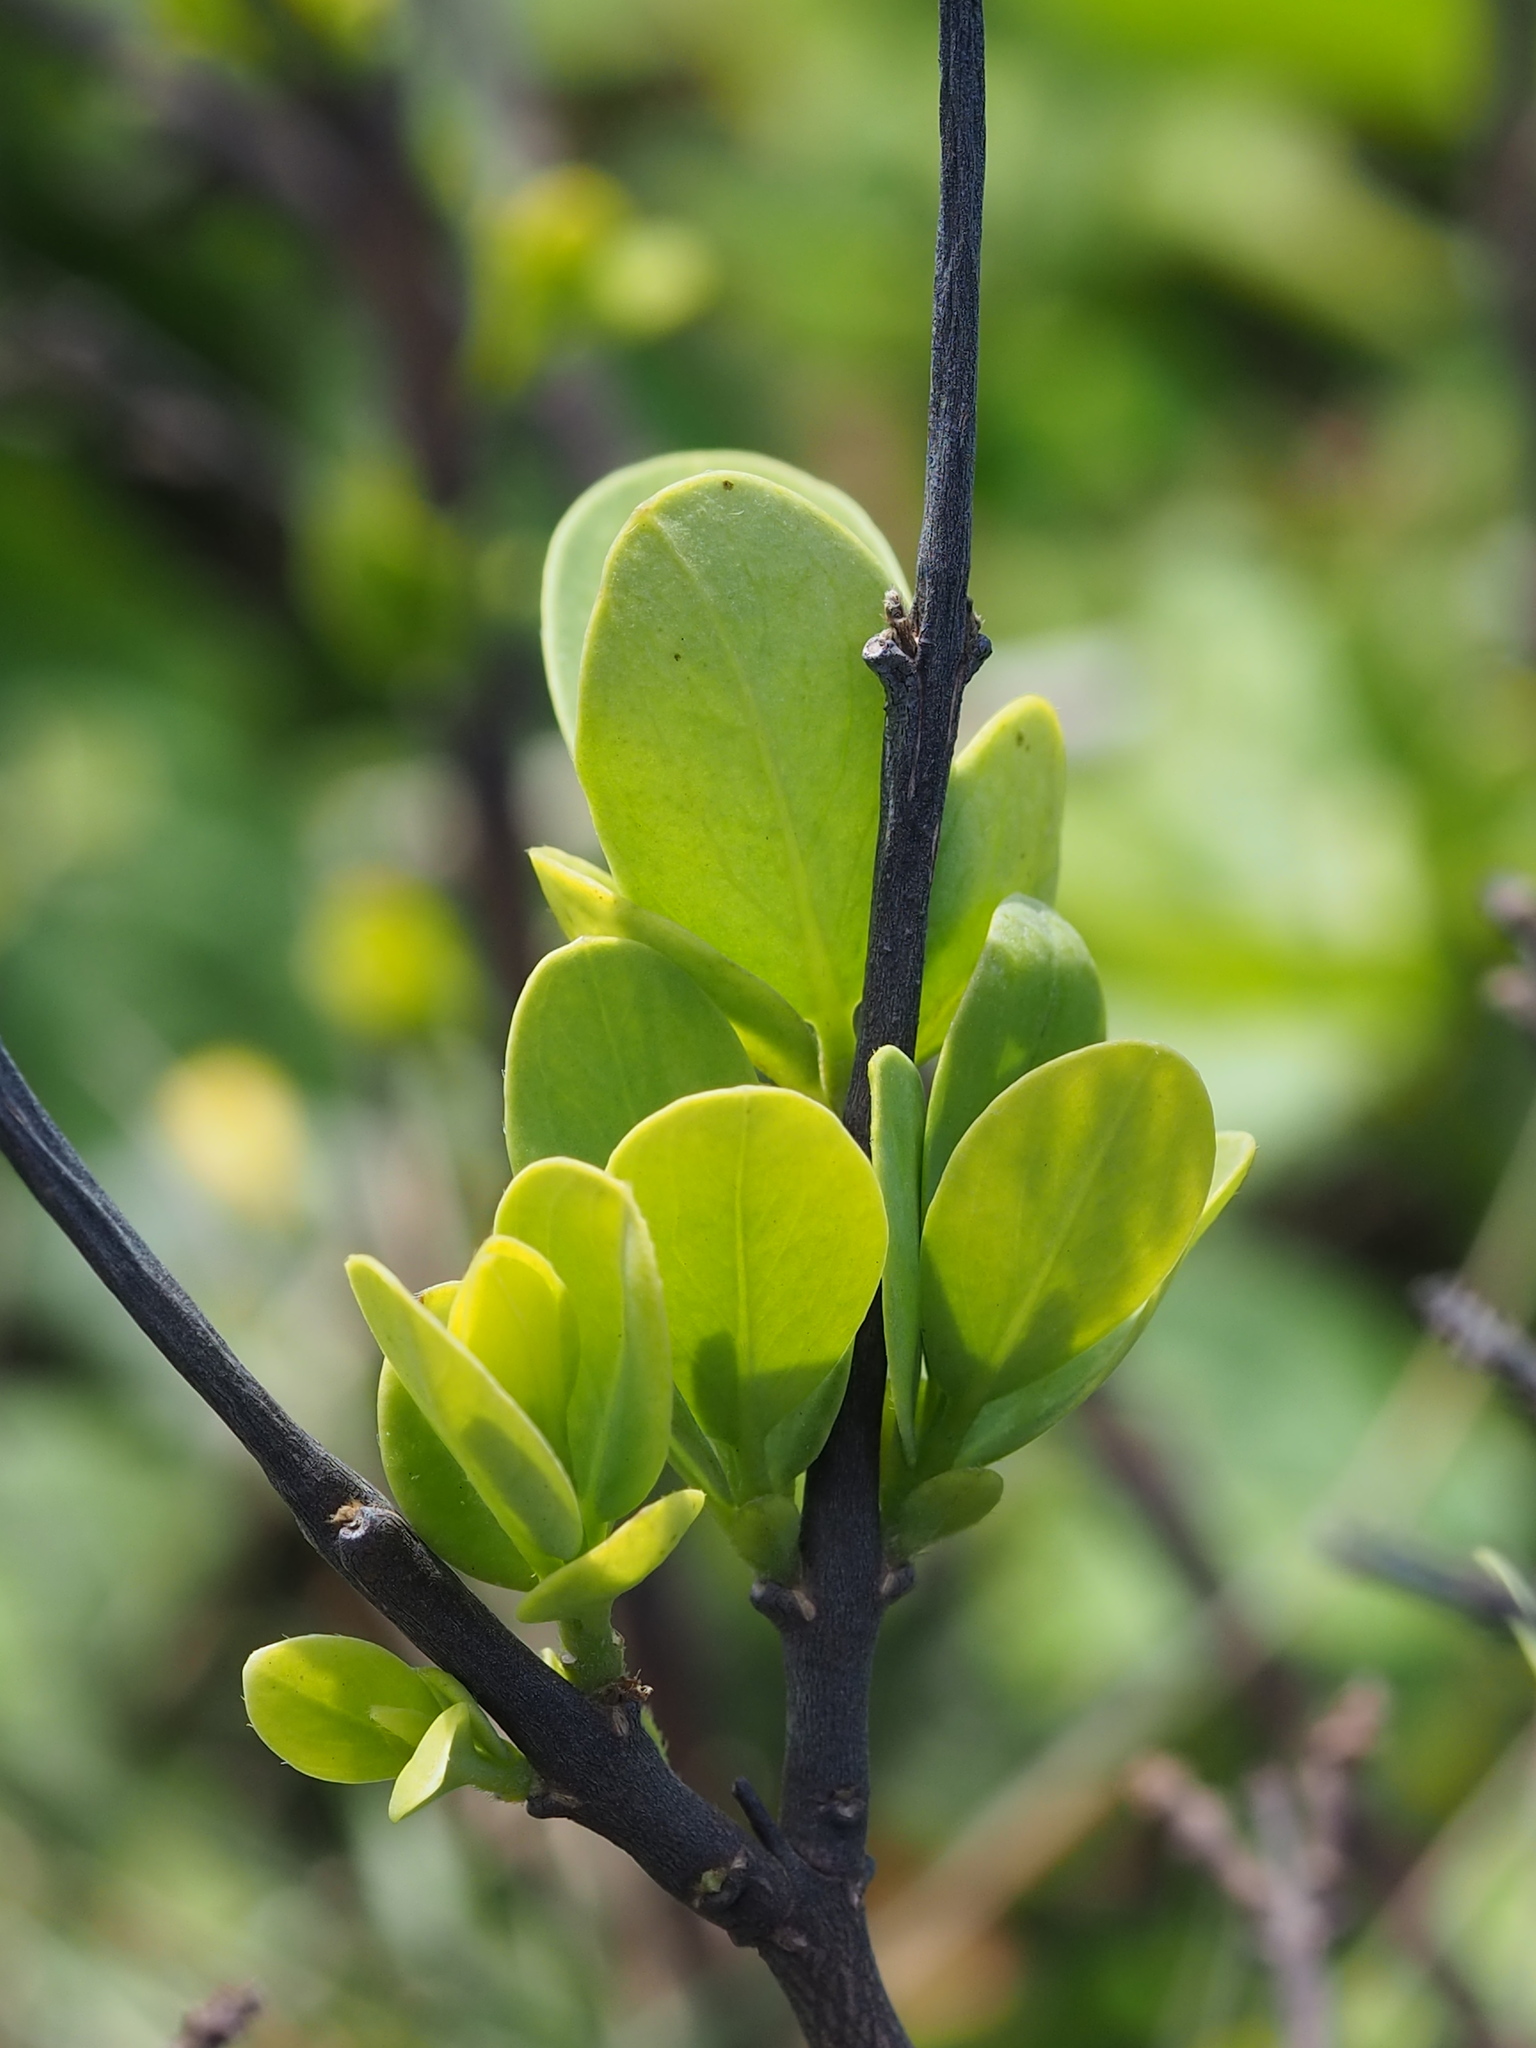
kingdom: Plantae
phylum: Tracheophyta
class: Magnoliopsida
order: Malvales
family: Thymelaeaceae
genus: Wikstroemia
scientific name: Wikstroemia indica
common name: Tiebush
